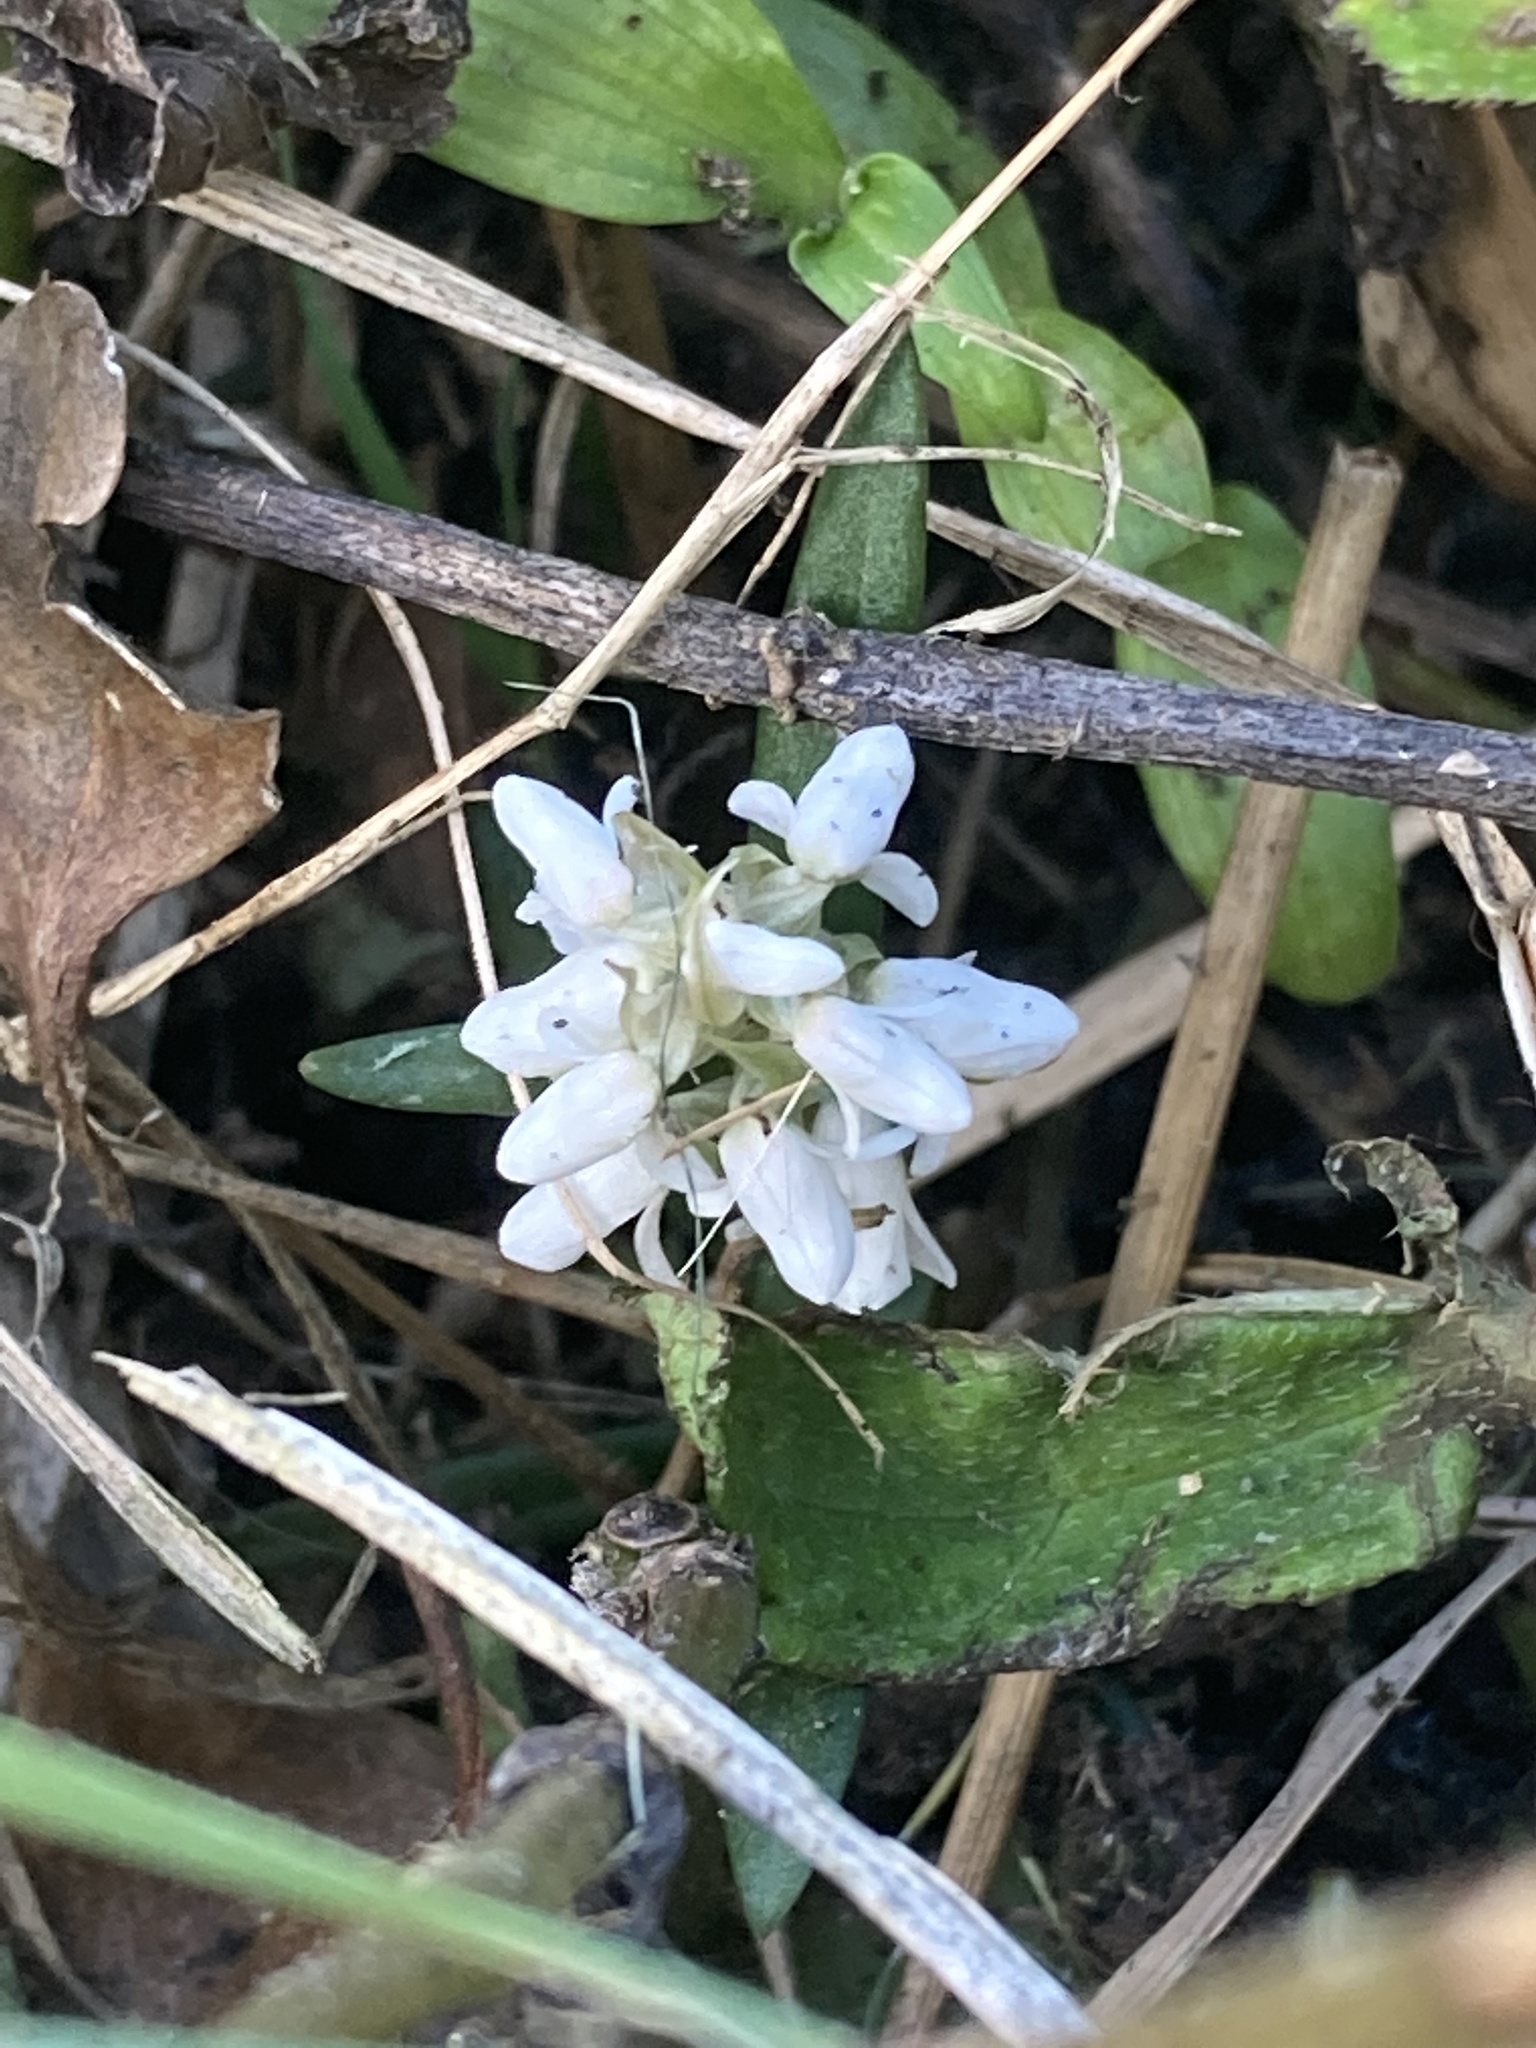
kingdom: Plantae
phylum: Tracheophyta
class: Liliopsida
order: Asparagales
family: Orchidaceae
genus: Zeuxine
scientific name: Zeuxine strateumatica
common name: Soldier's orchid
